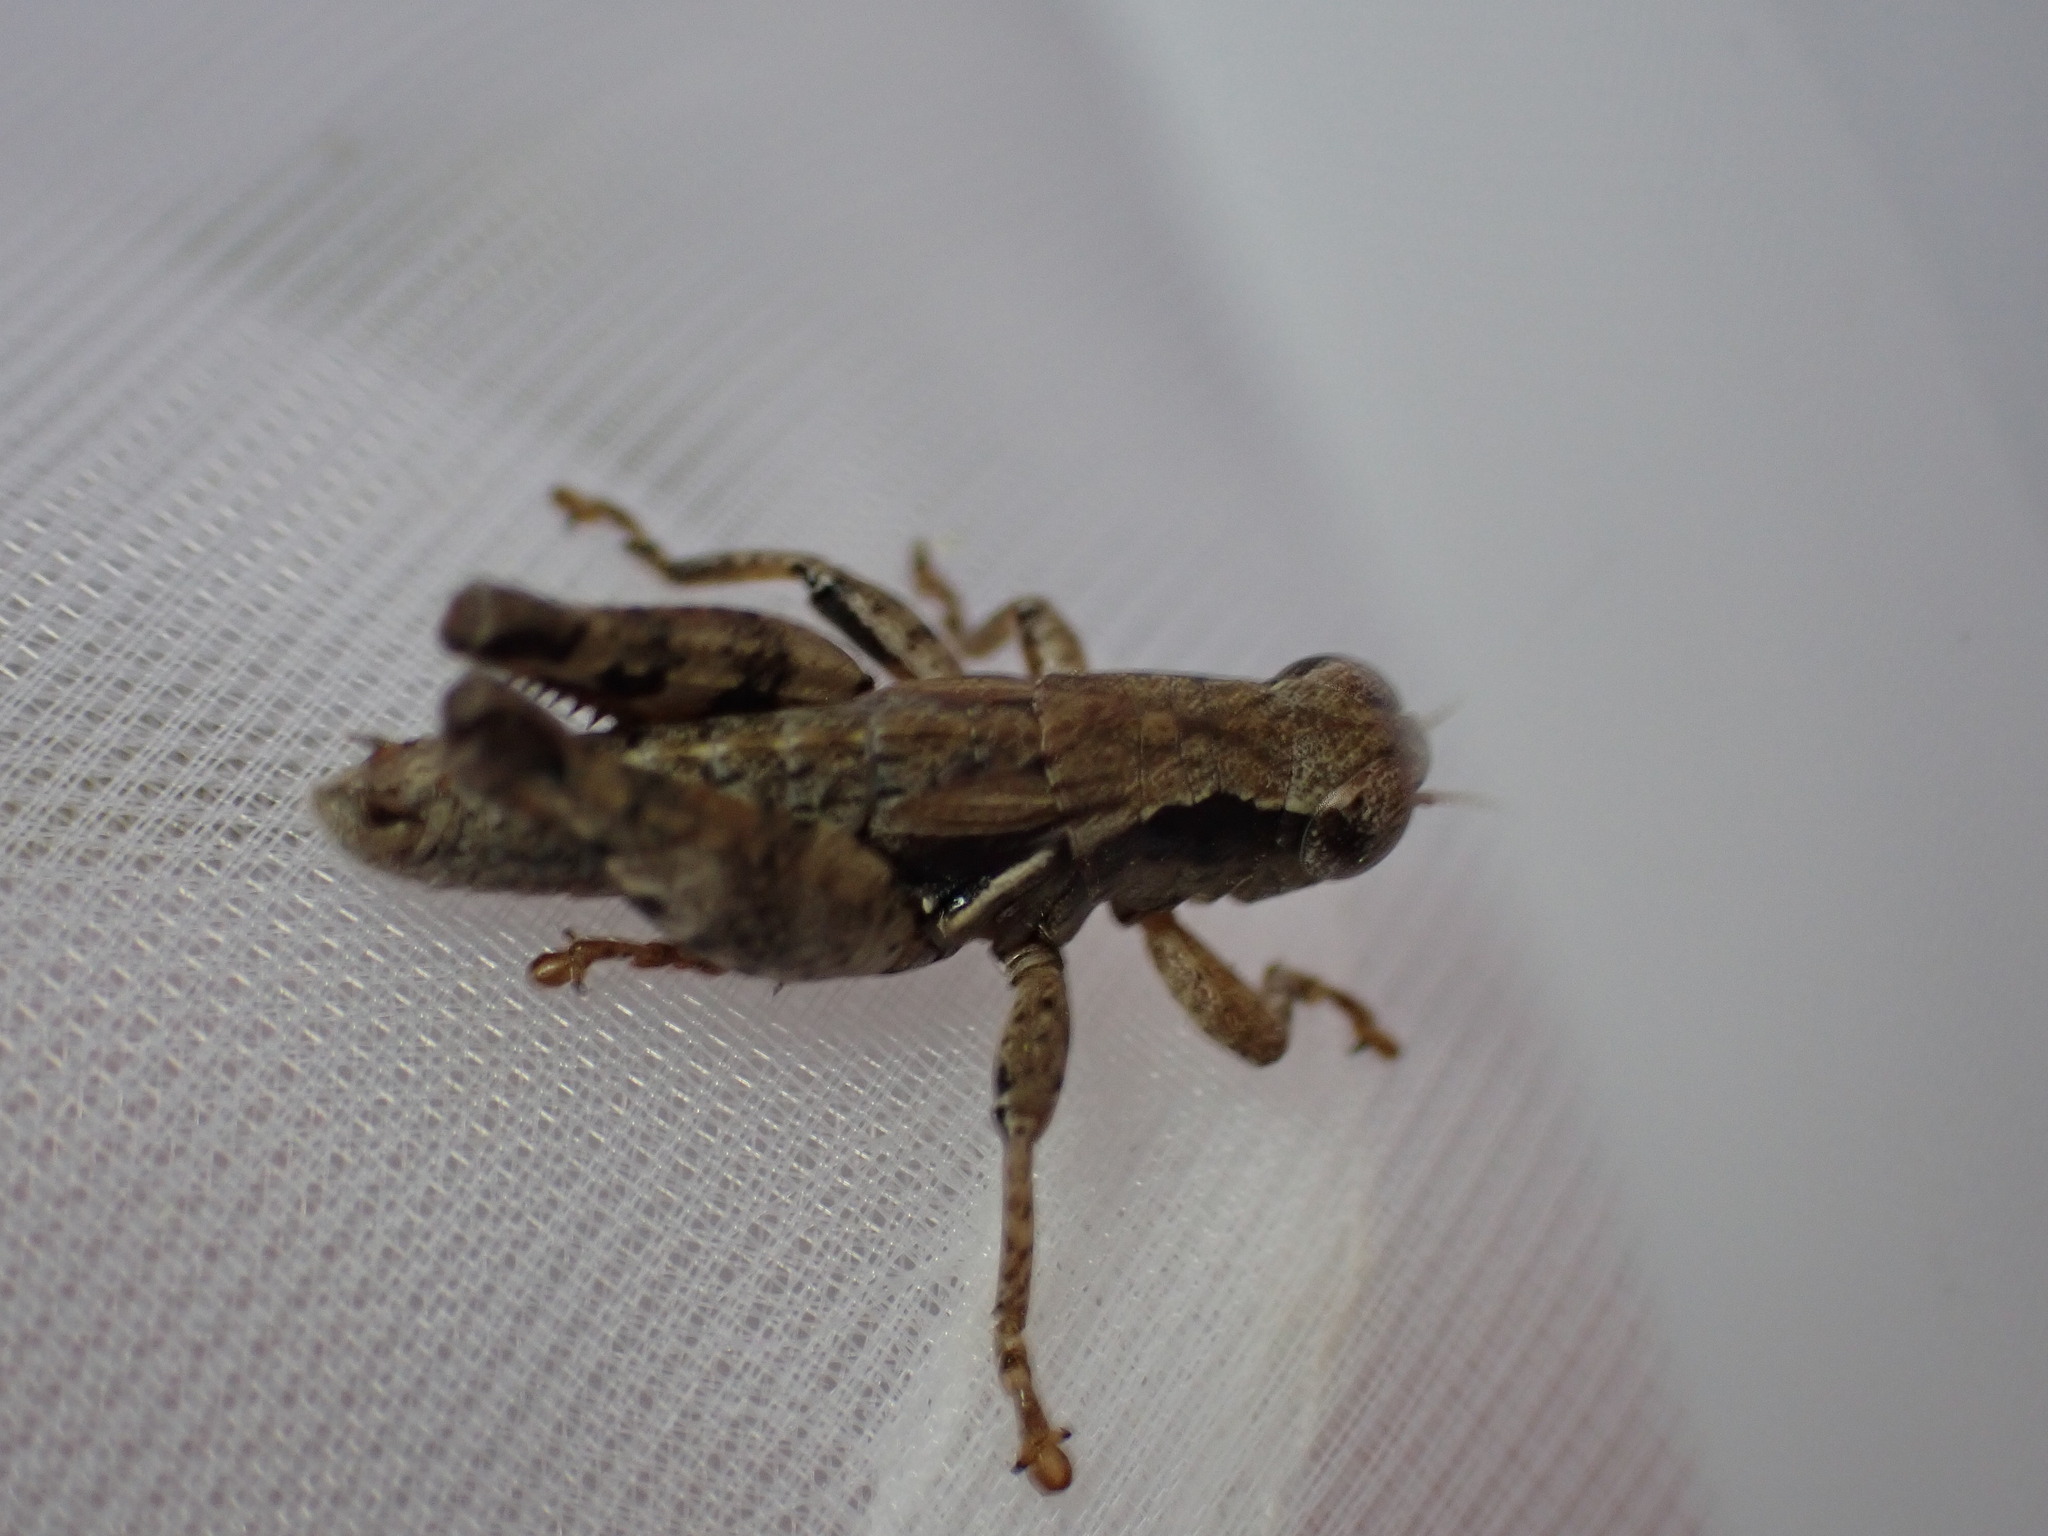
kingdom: Animalia
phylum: Arthropoda
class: Insecta
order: Orthoptera
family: Acrididae
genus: Pezotettix
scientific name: Pezotettix giornae
